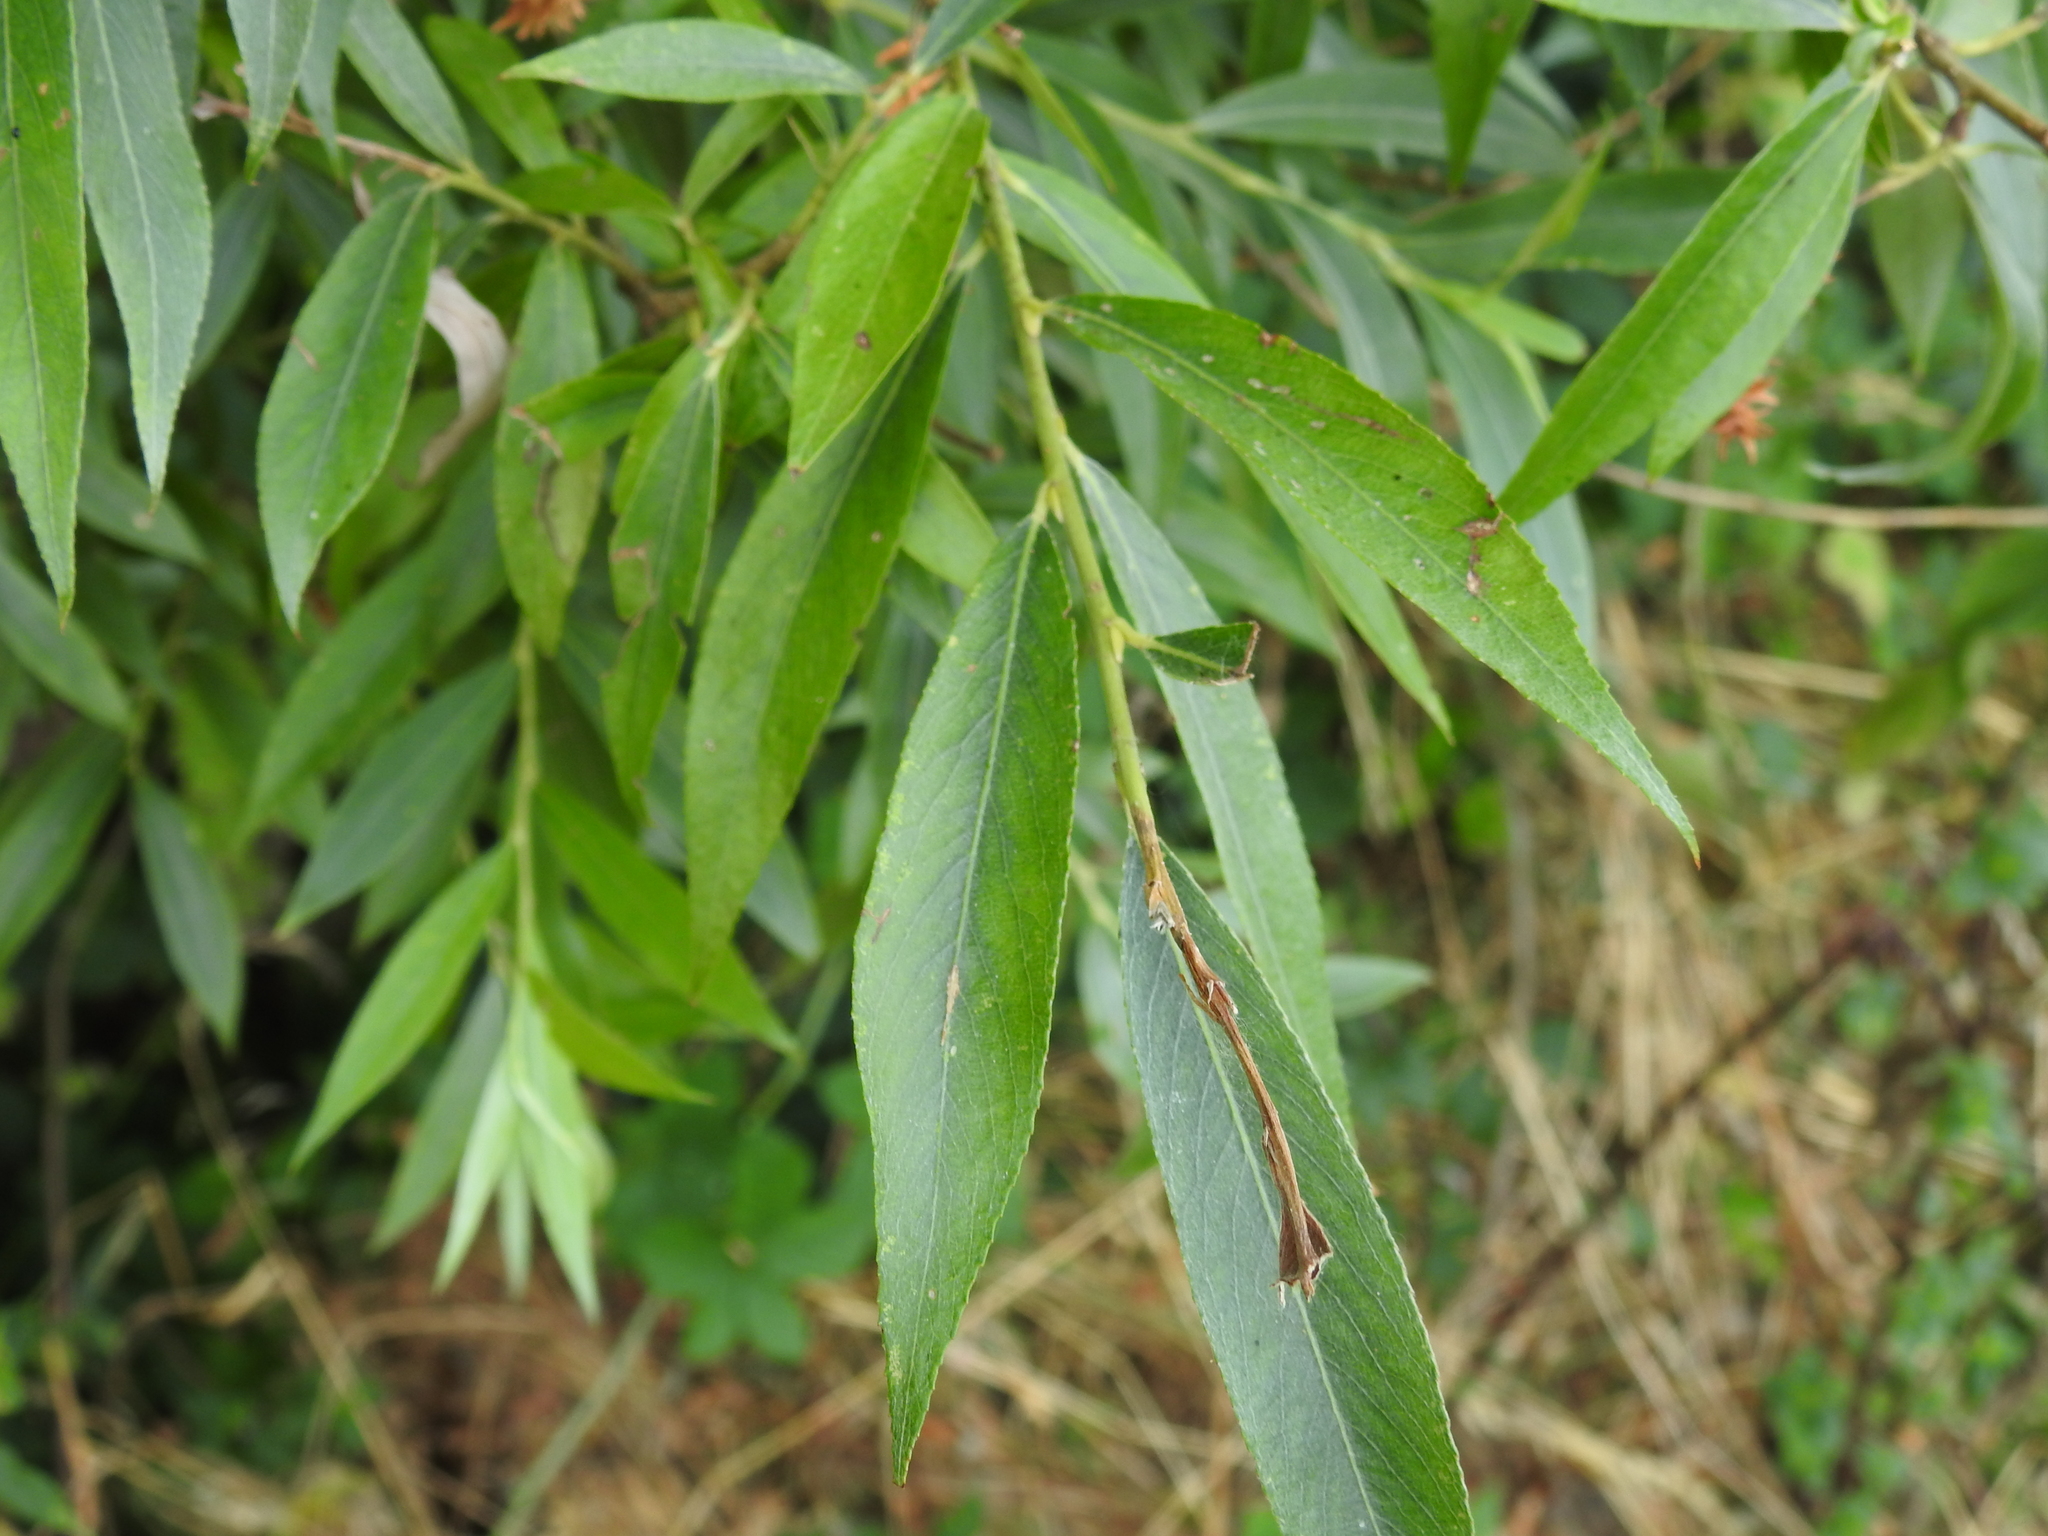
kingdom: Plantae
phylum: Tracheophyta
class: Magnoliopsida
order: Malpighiales
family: Salicaceae
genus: Salix
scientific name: Salix alba
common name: White willow
